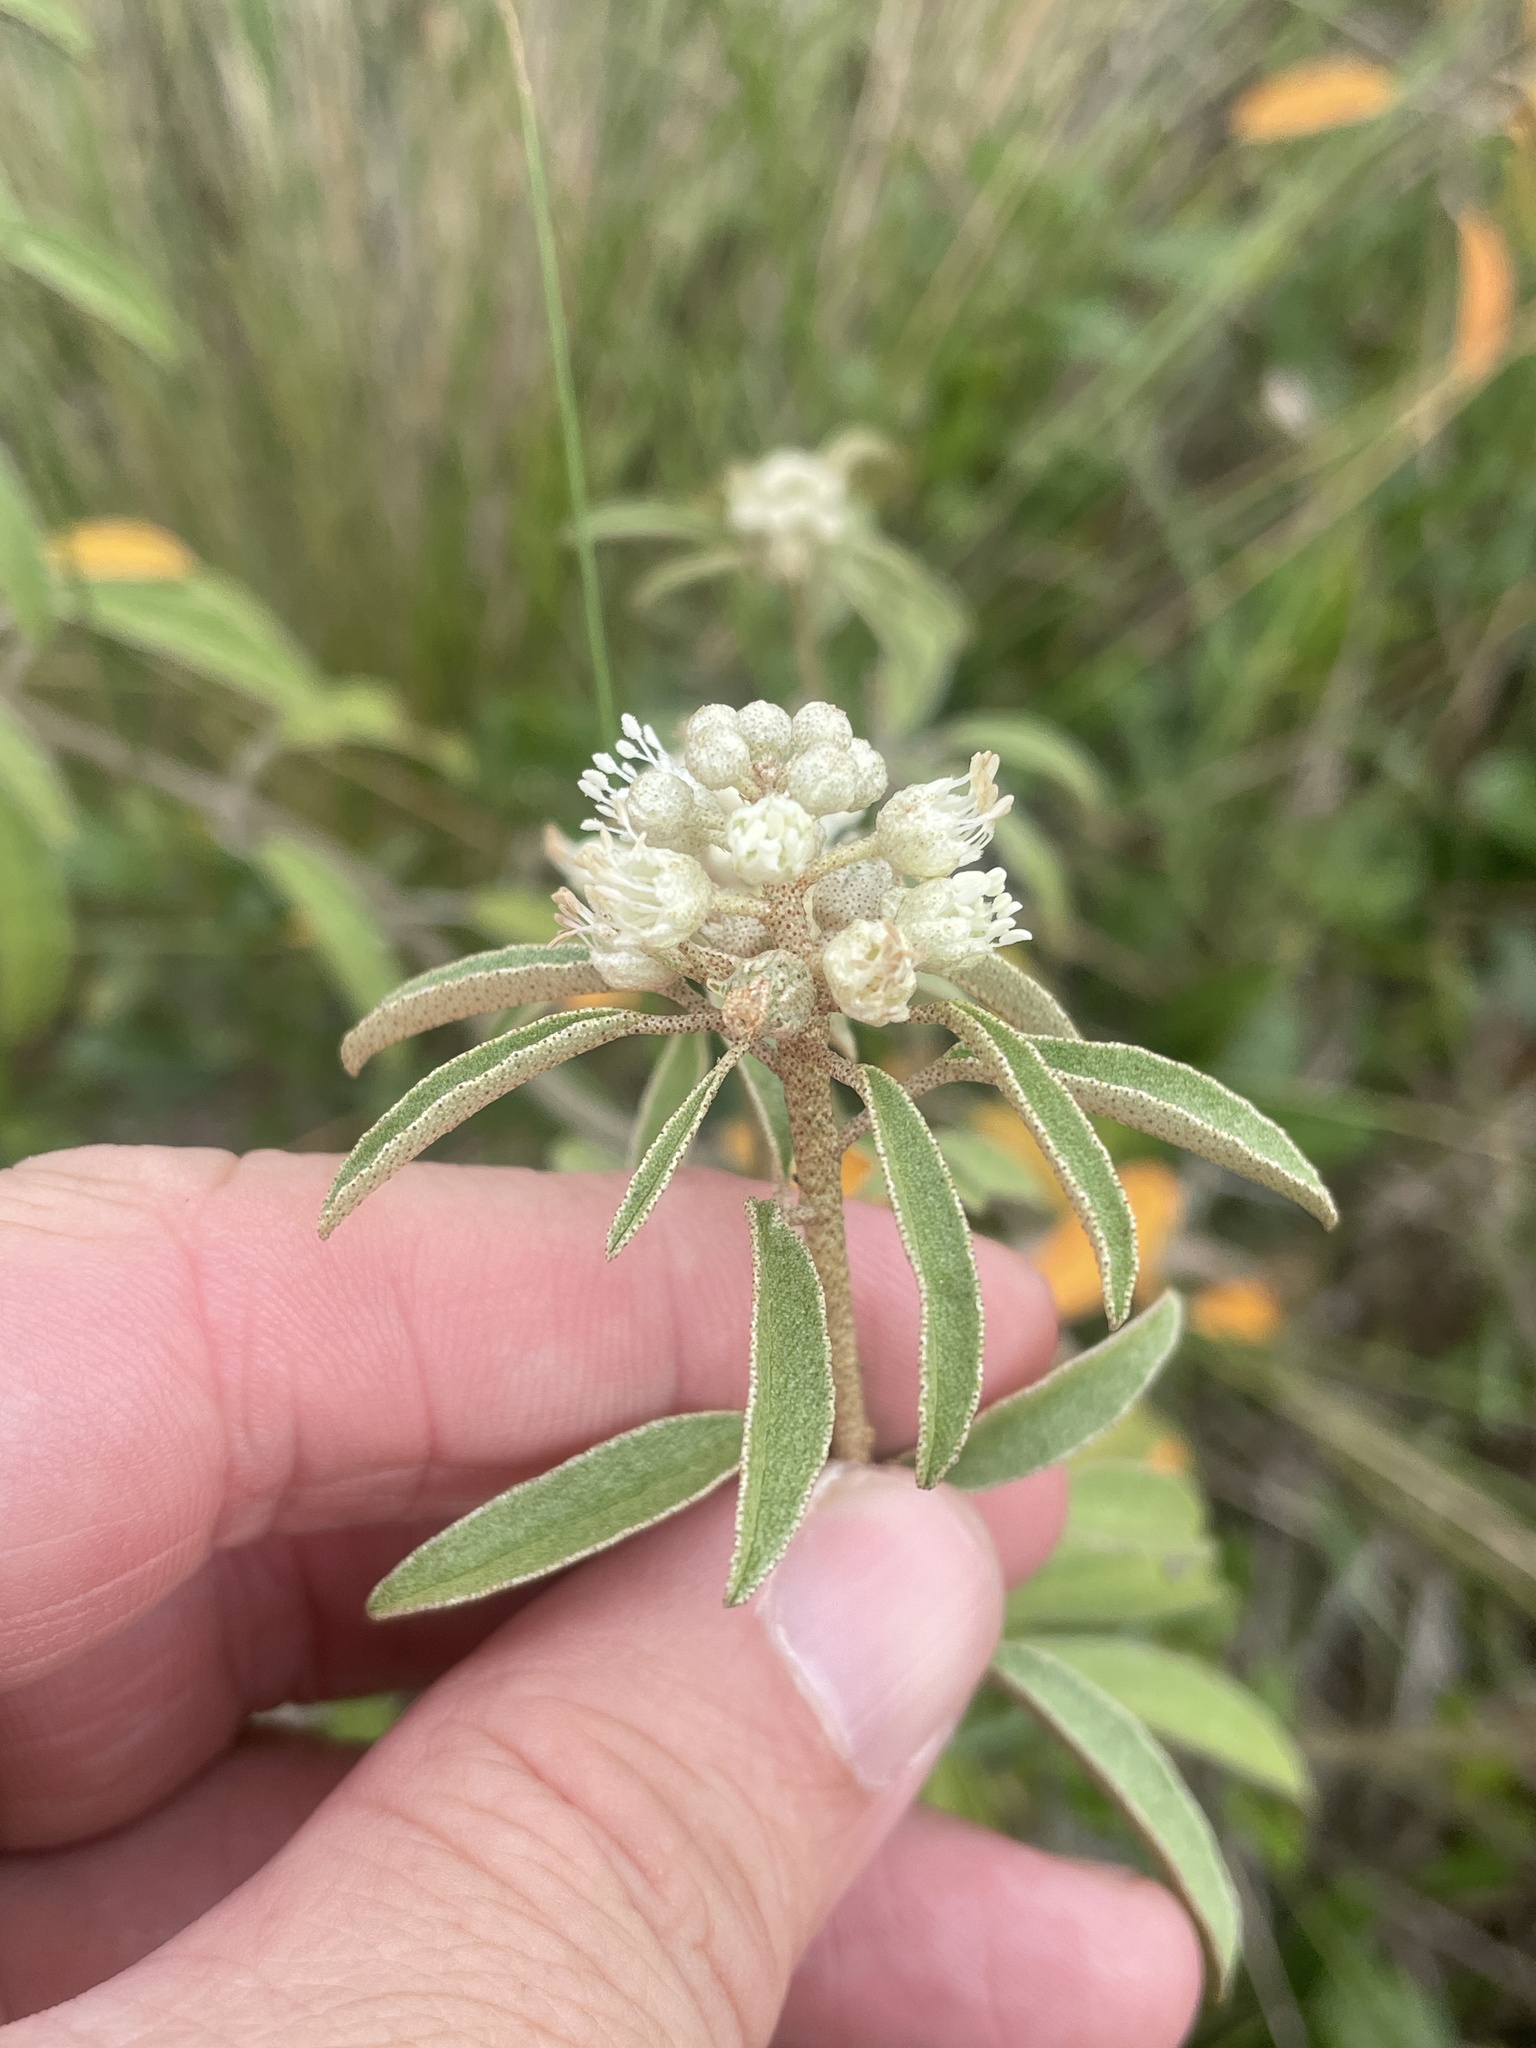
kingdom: Plantae
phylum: Tracheophyta
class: Magnoliopsida
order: Malpighiales
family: Euphorbiaceae
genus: Croton
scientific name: Croton argyranthemus
